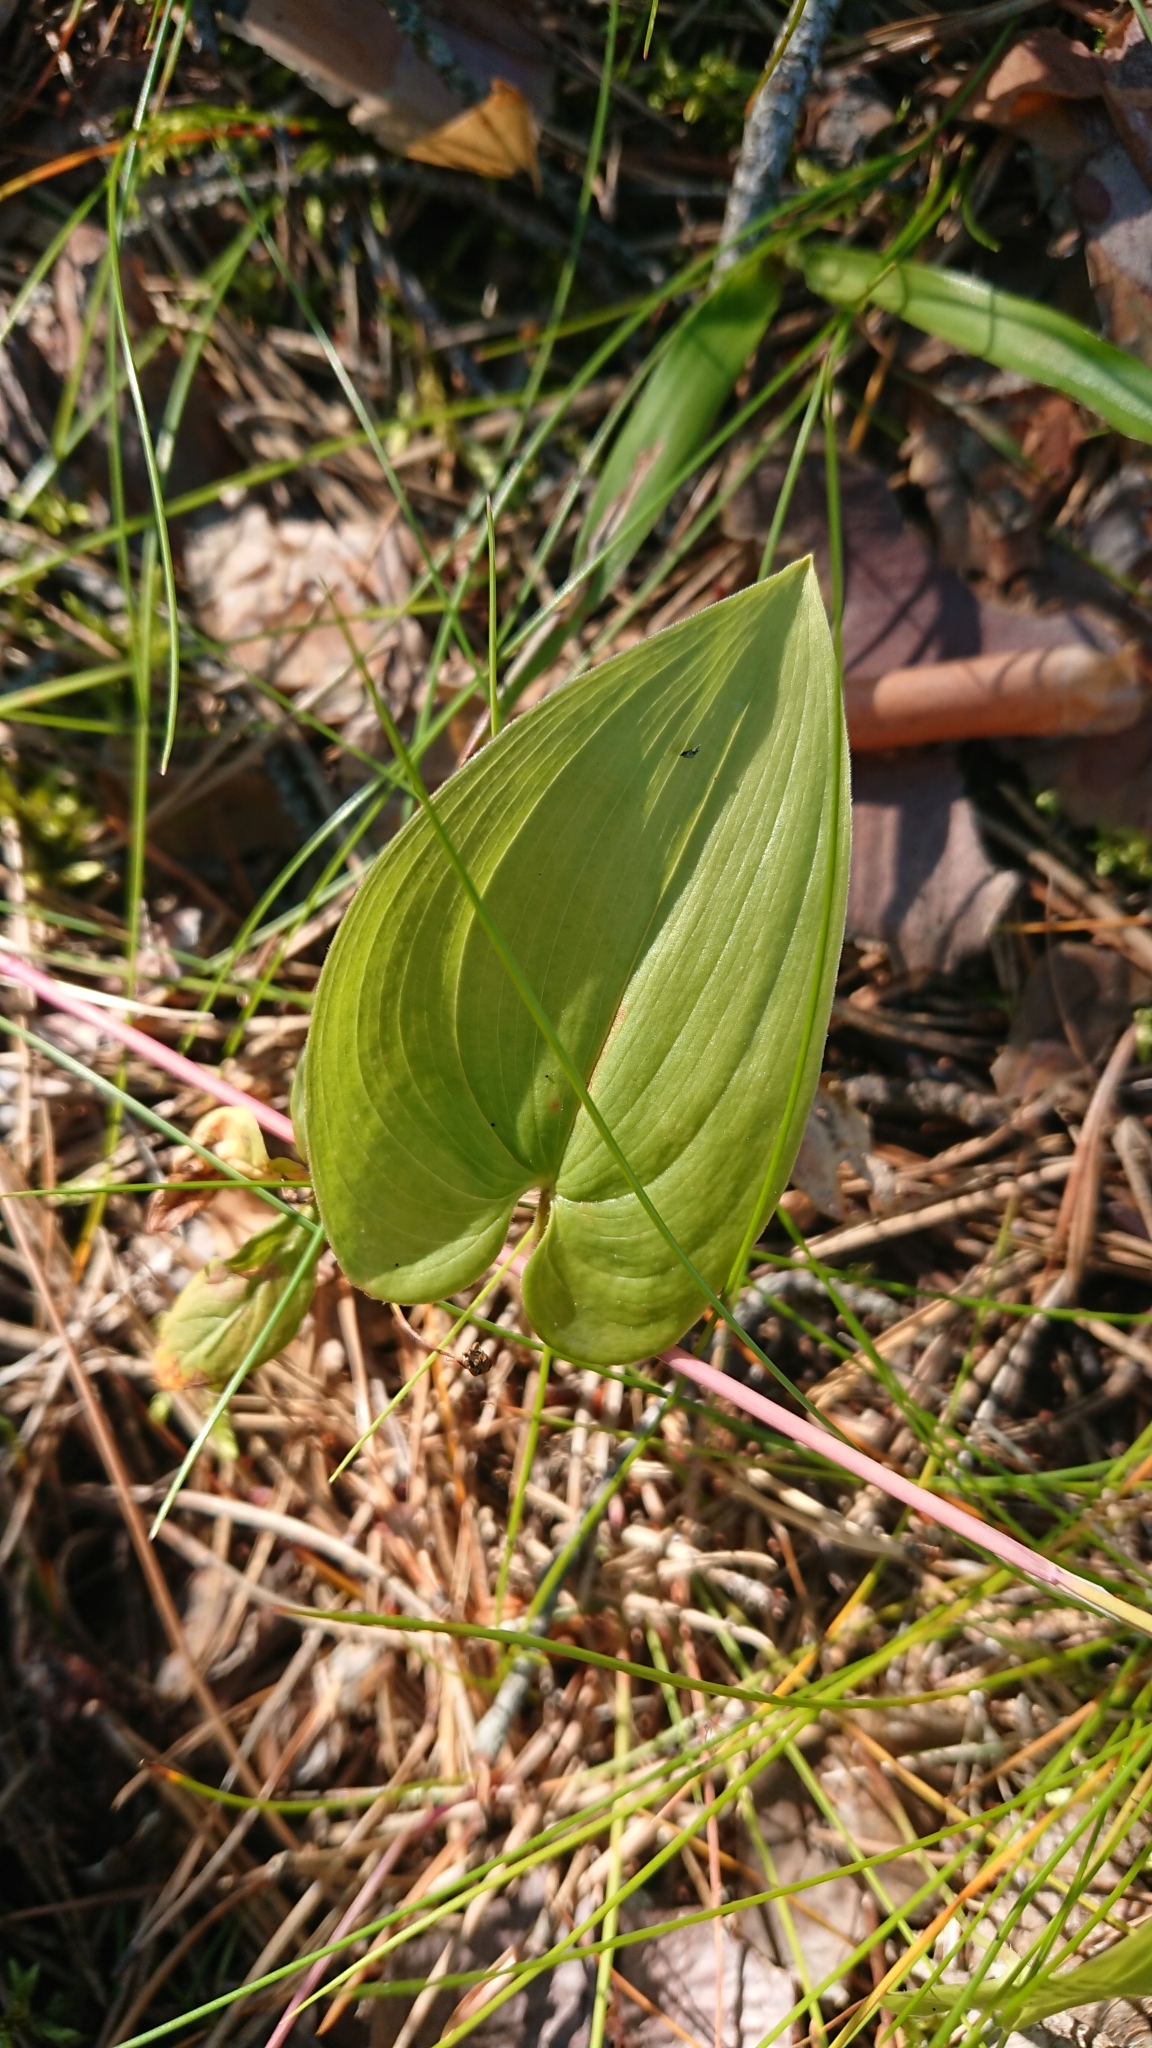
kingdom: Plantae
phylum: Tracheophyta
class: Liliopsida
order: Asparagales
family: Asparagaceae
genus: Maianthemum
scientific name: Maianthemum bifolium
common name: May lily
